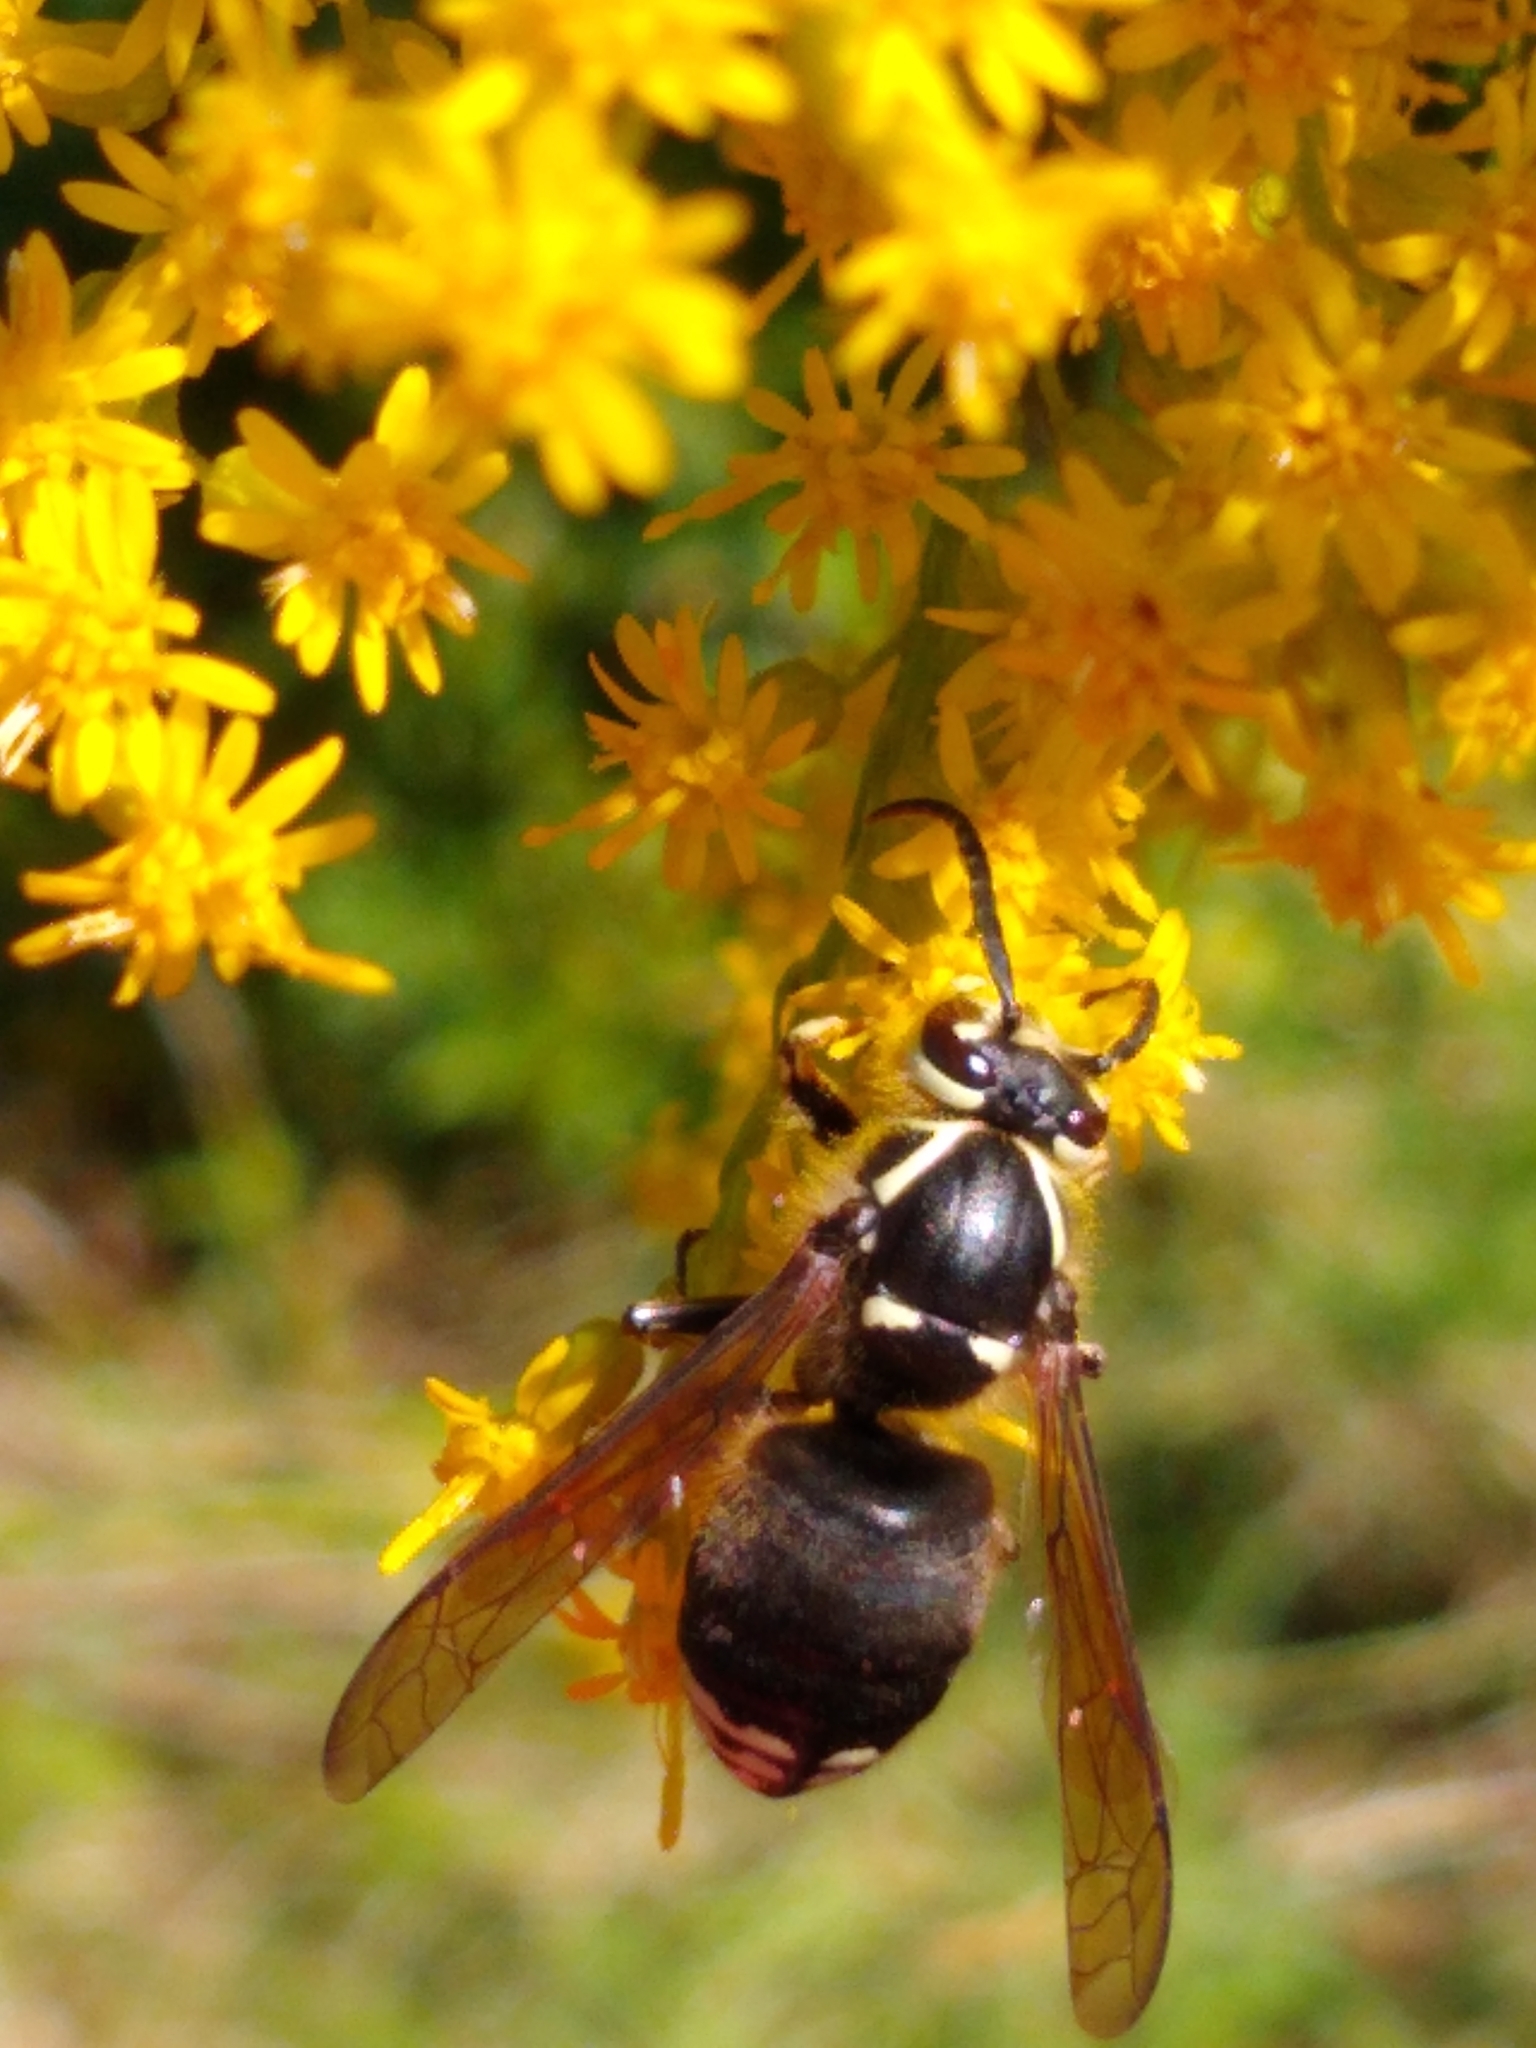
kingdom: Animalia
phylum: Arthropoda
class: Insecta
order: Hymenoptera
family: Vespidae
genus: Dolichovespula
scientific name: Dolichovespula maculata
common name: Bald-faced hornet
